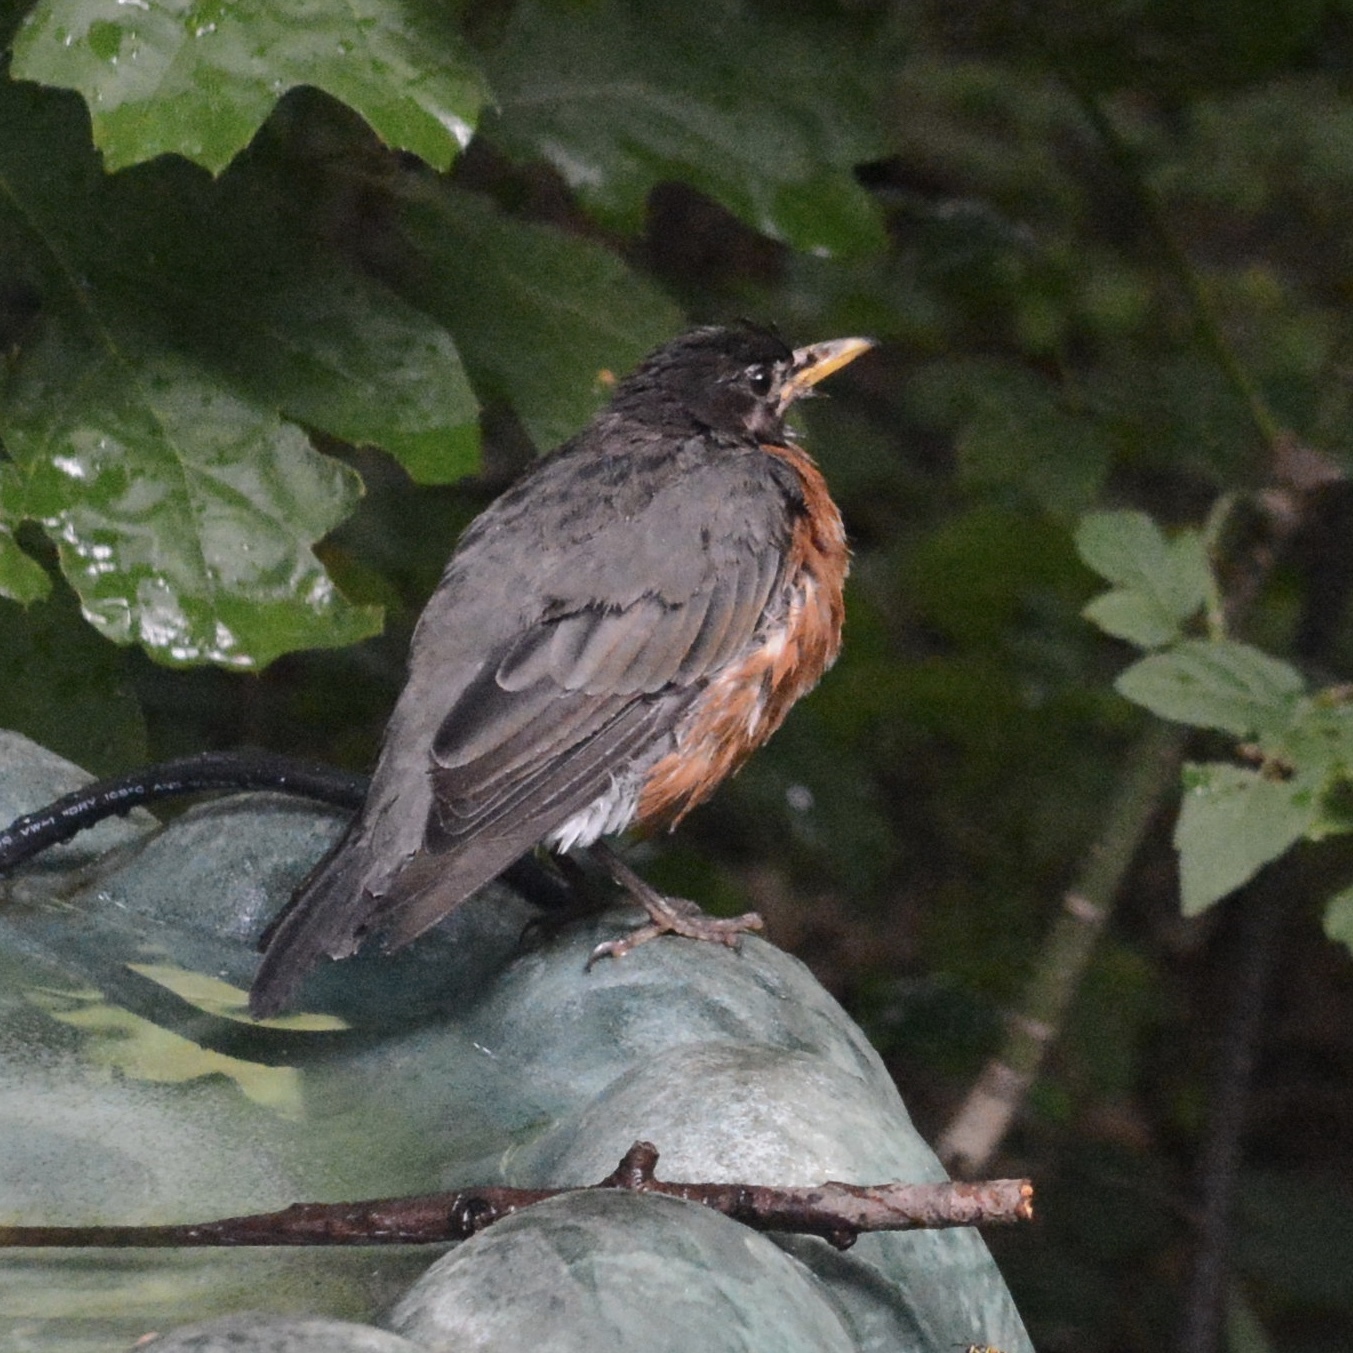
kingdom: Animalia
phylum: Chordata
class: Aves
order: Passeriformes
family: Turdidae
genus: Turdus
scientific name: Turdus migratorius
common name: American robin
